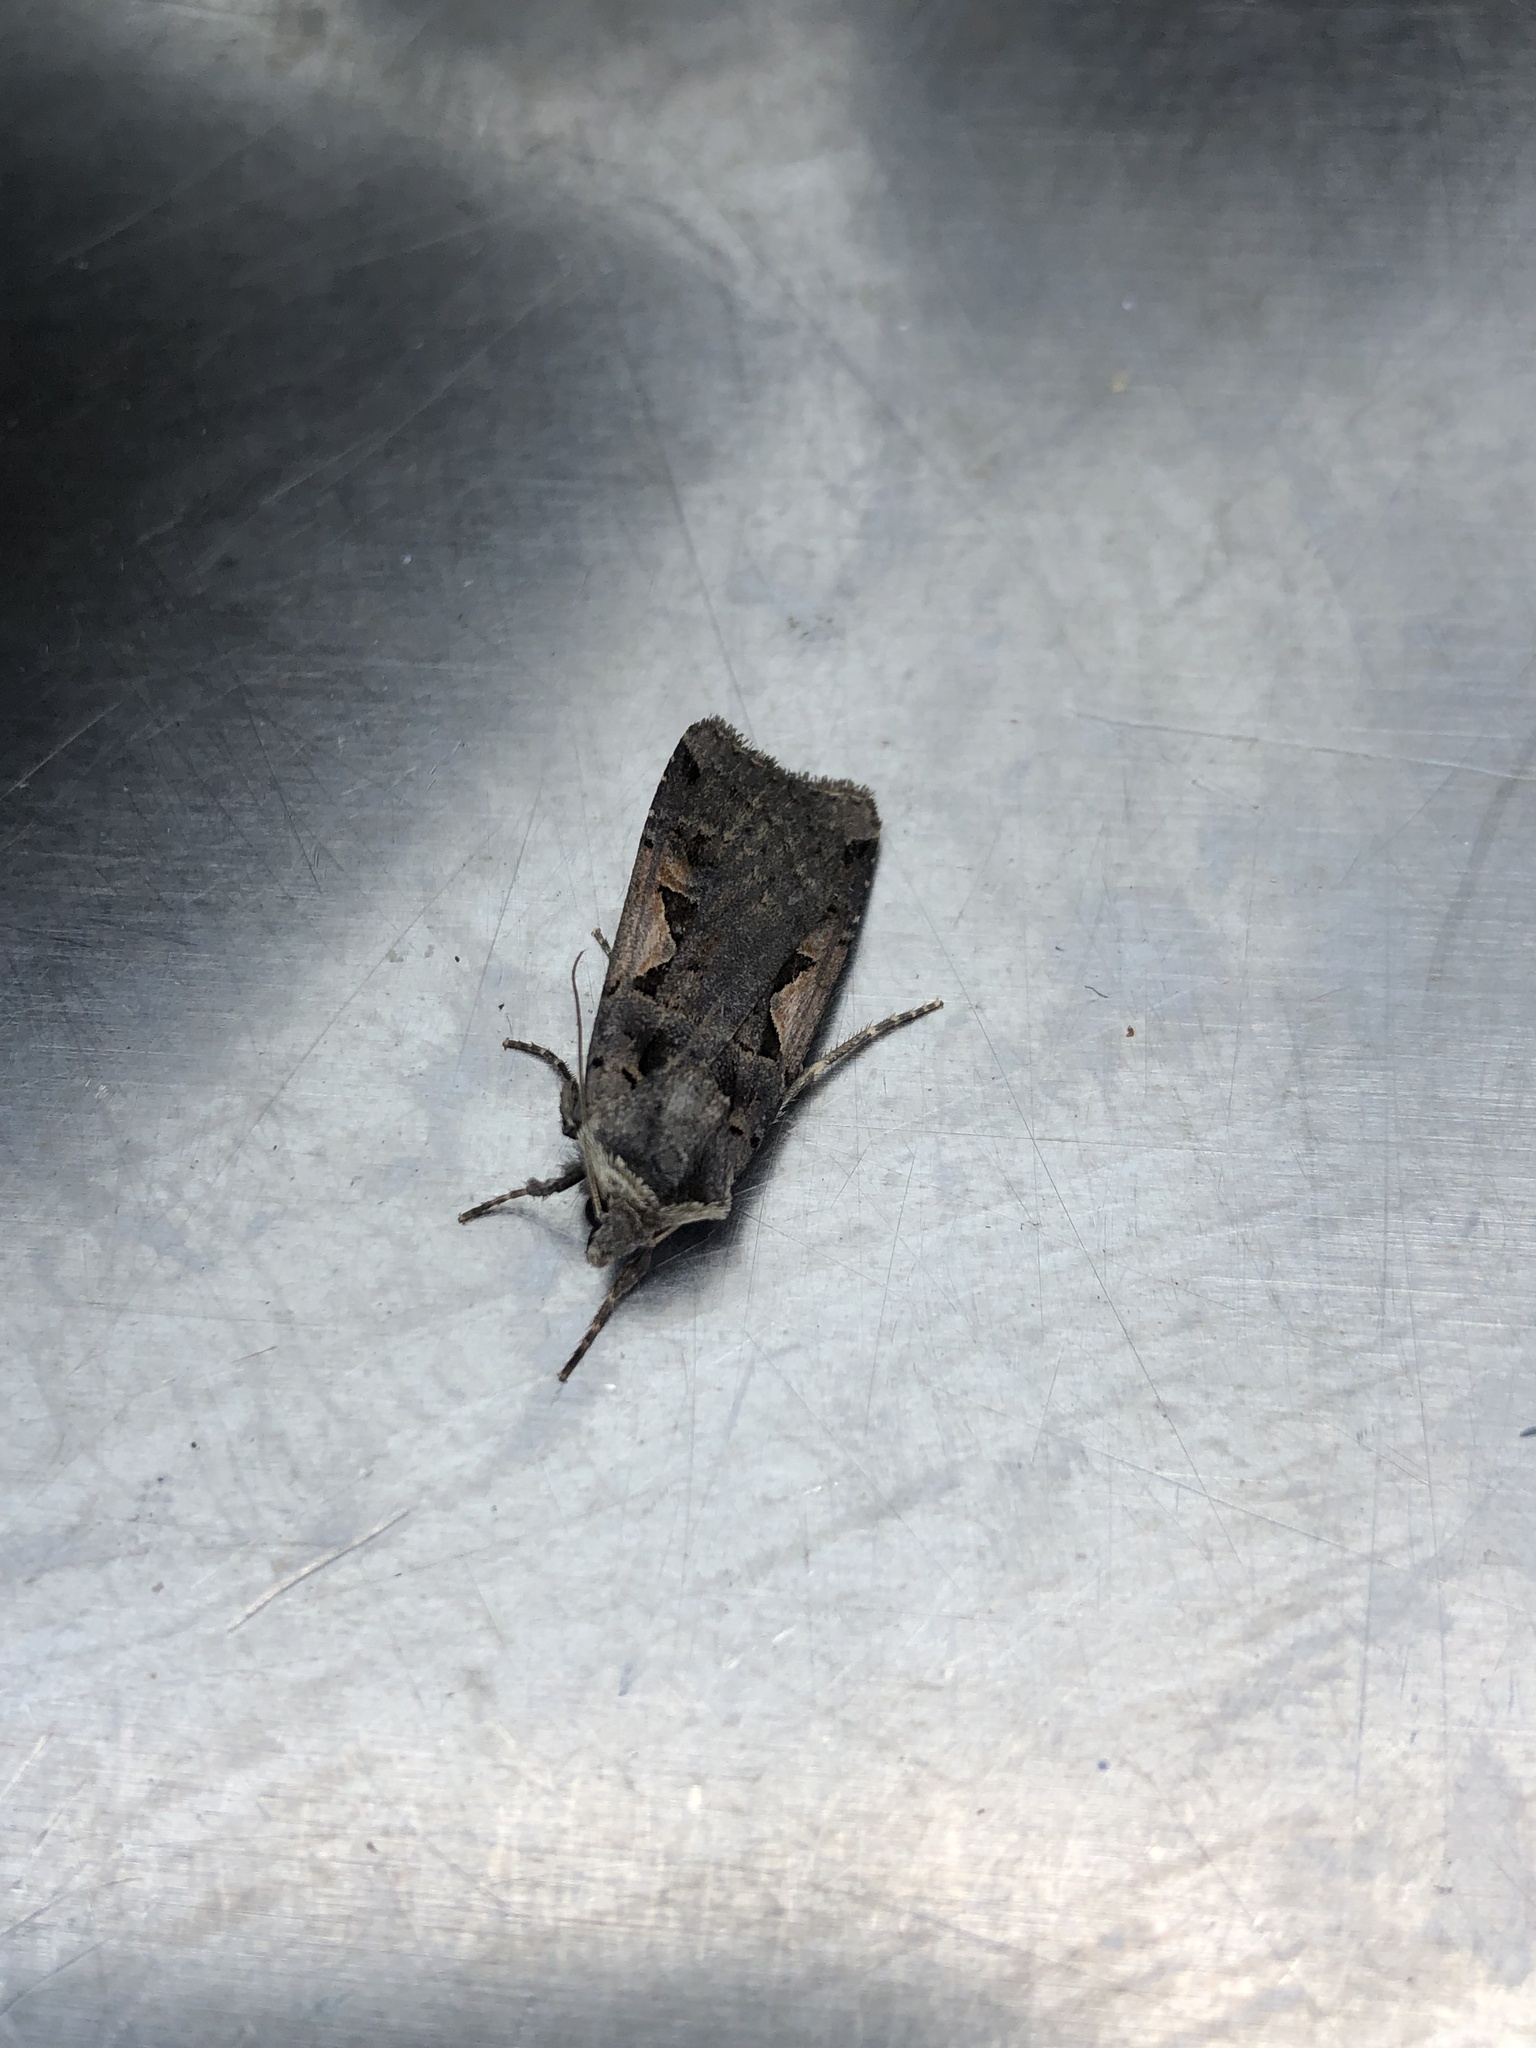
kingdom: Animalia
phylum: Arthropoda
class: Insecta
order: Lepidoptera
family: Noctuidae
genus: Xestia
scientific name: Xestia c-nigrum
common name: Setaceous hebrew character
